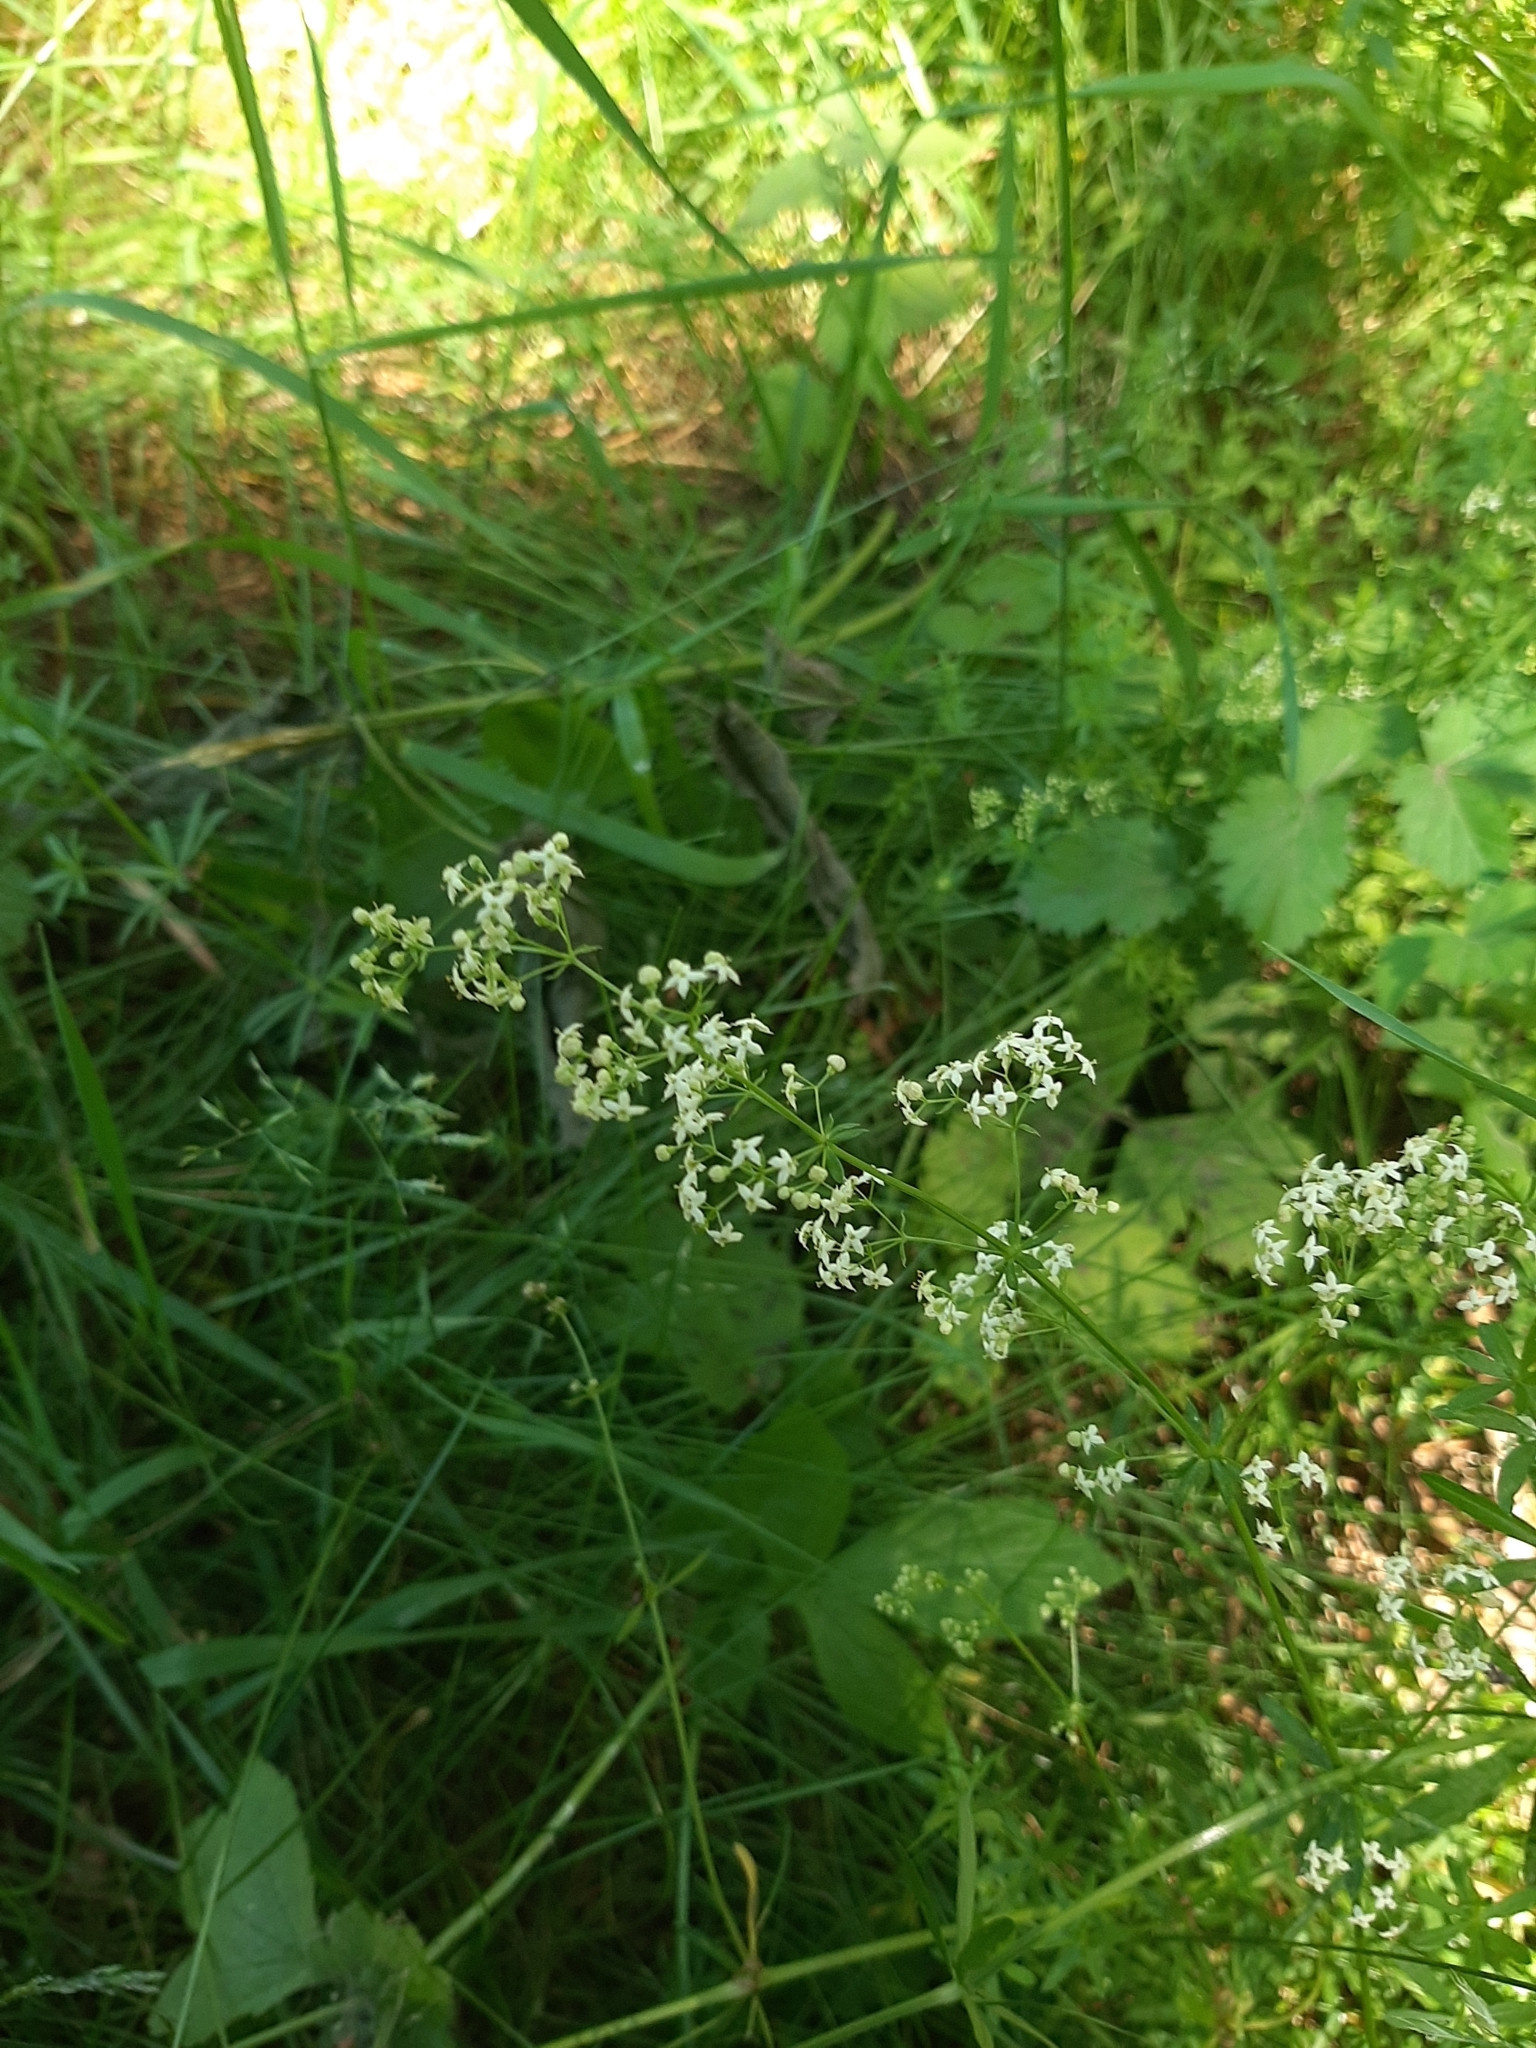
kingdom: Plantae
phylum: Tracheophyta
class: Magnoliopsida
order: Gentianales
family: Rubiaceae
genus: Galium
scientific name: Galium mollugo
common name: Hedge bedstraw
